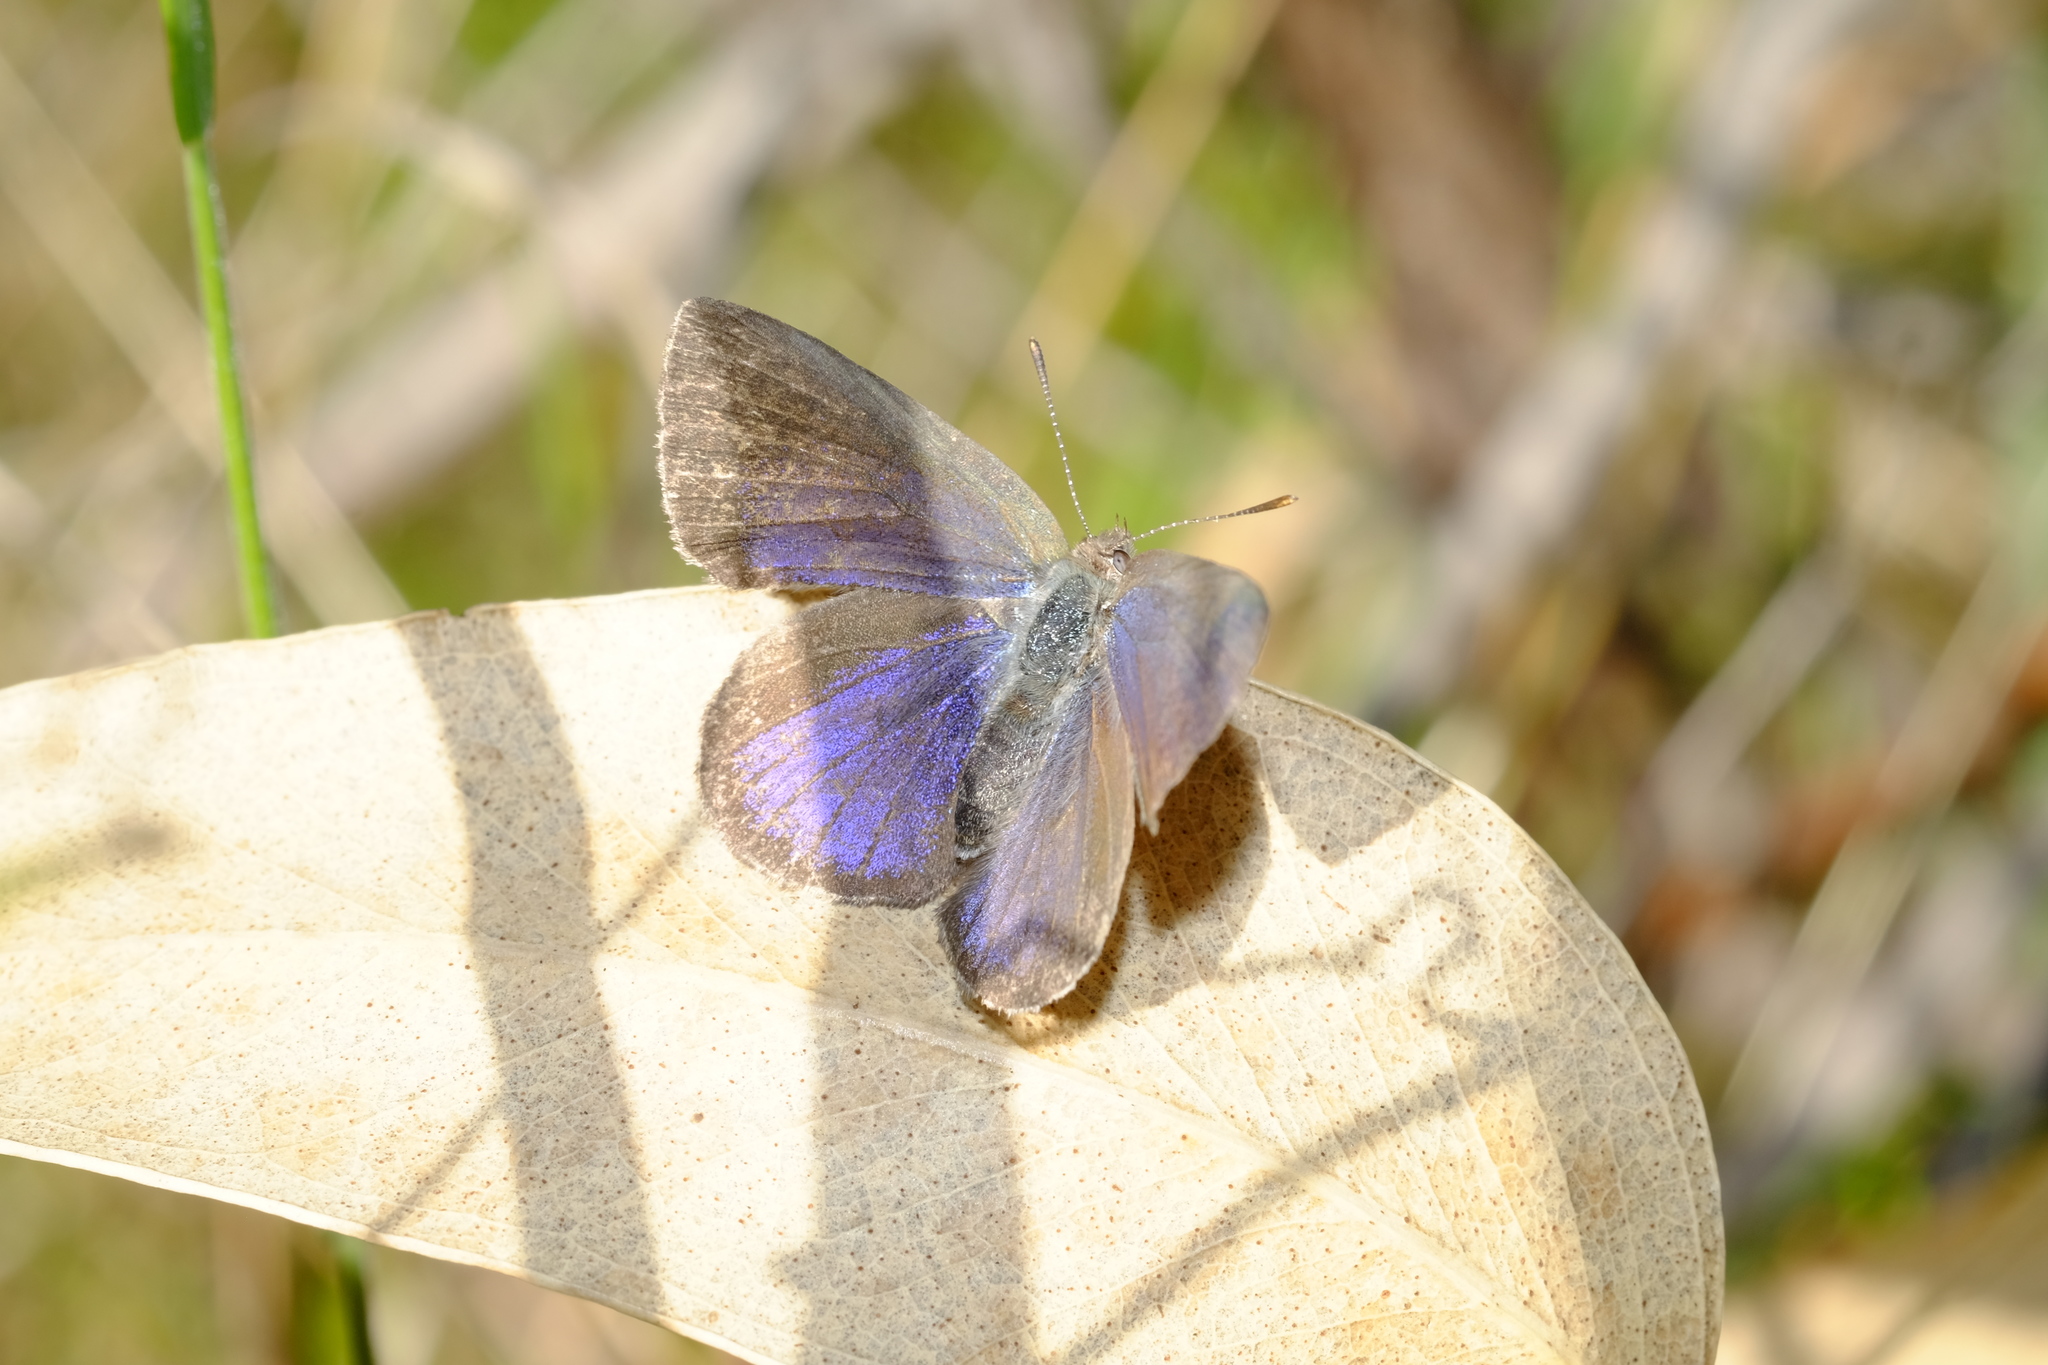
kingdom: Animalia
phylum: Arthropoda
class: Insecta
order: Lepidoptera
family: Lycaenidae
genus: Candalides
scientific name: Candalides
